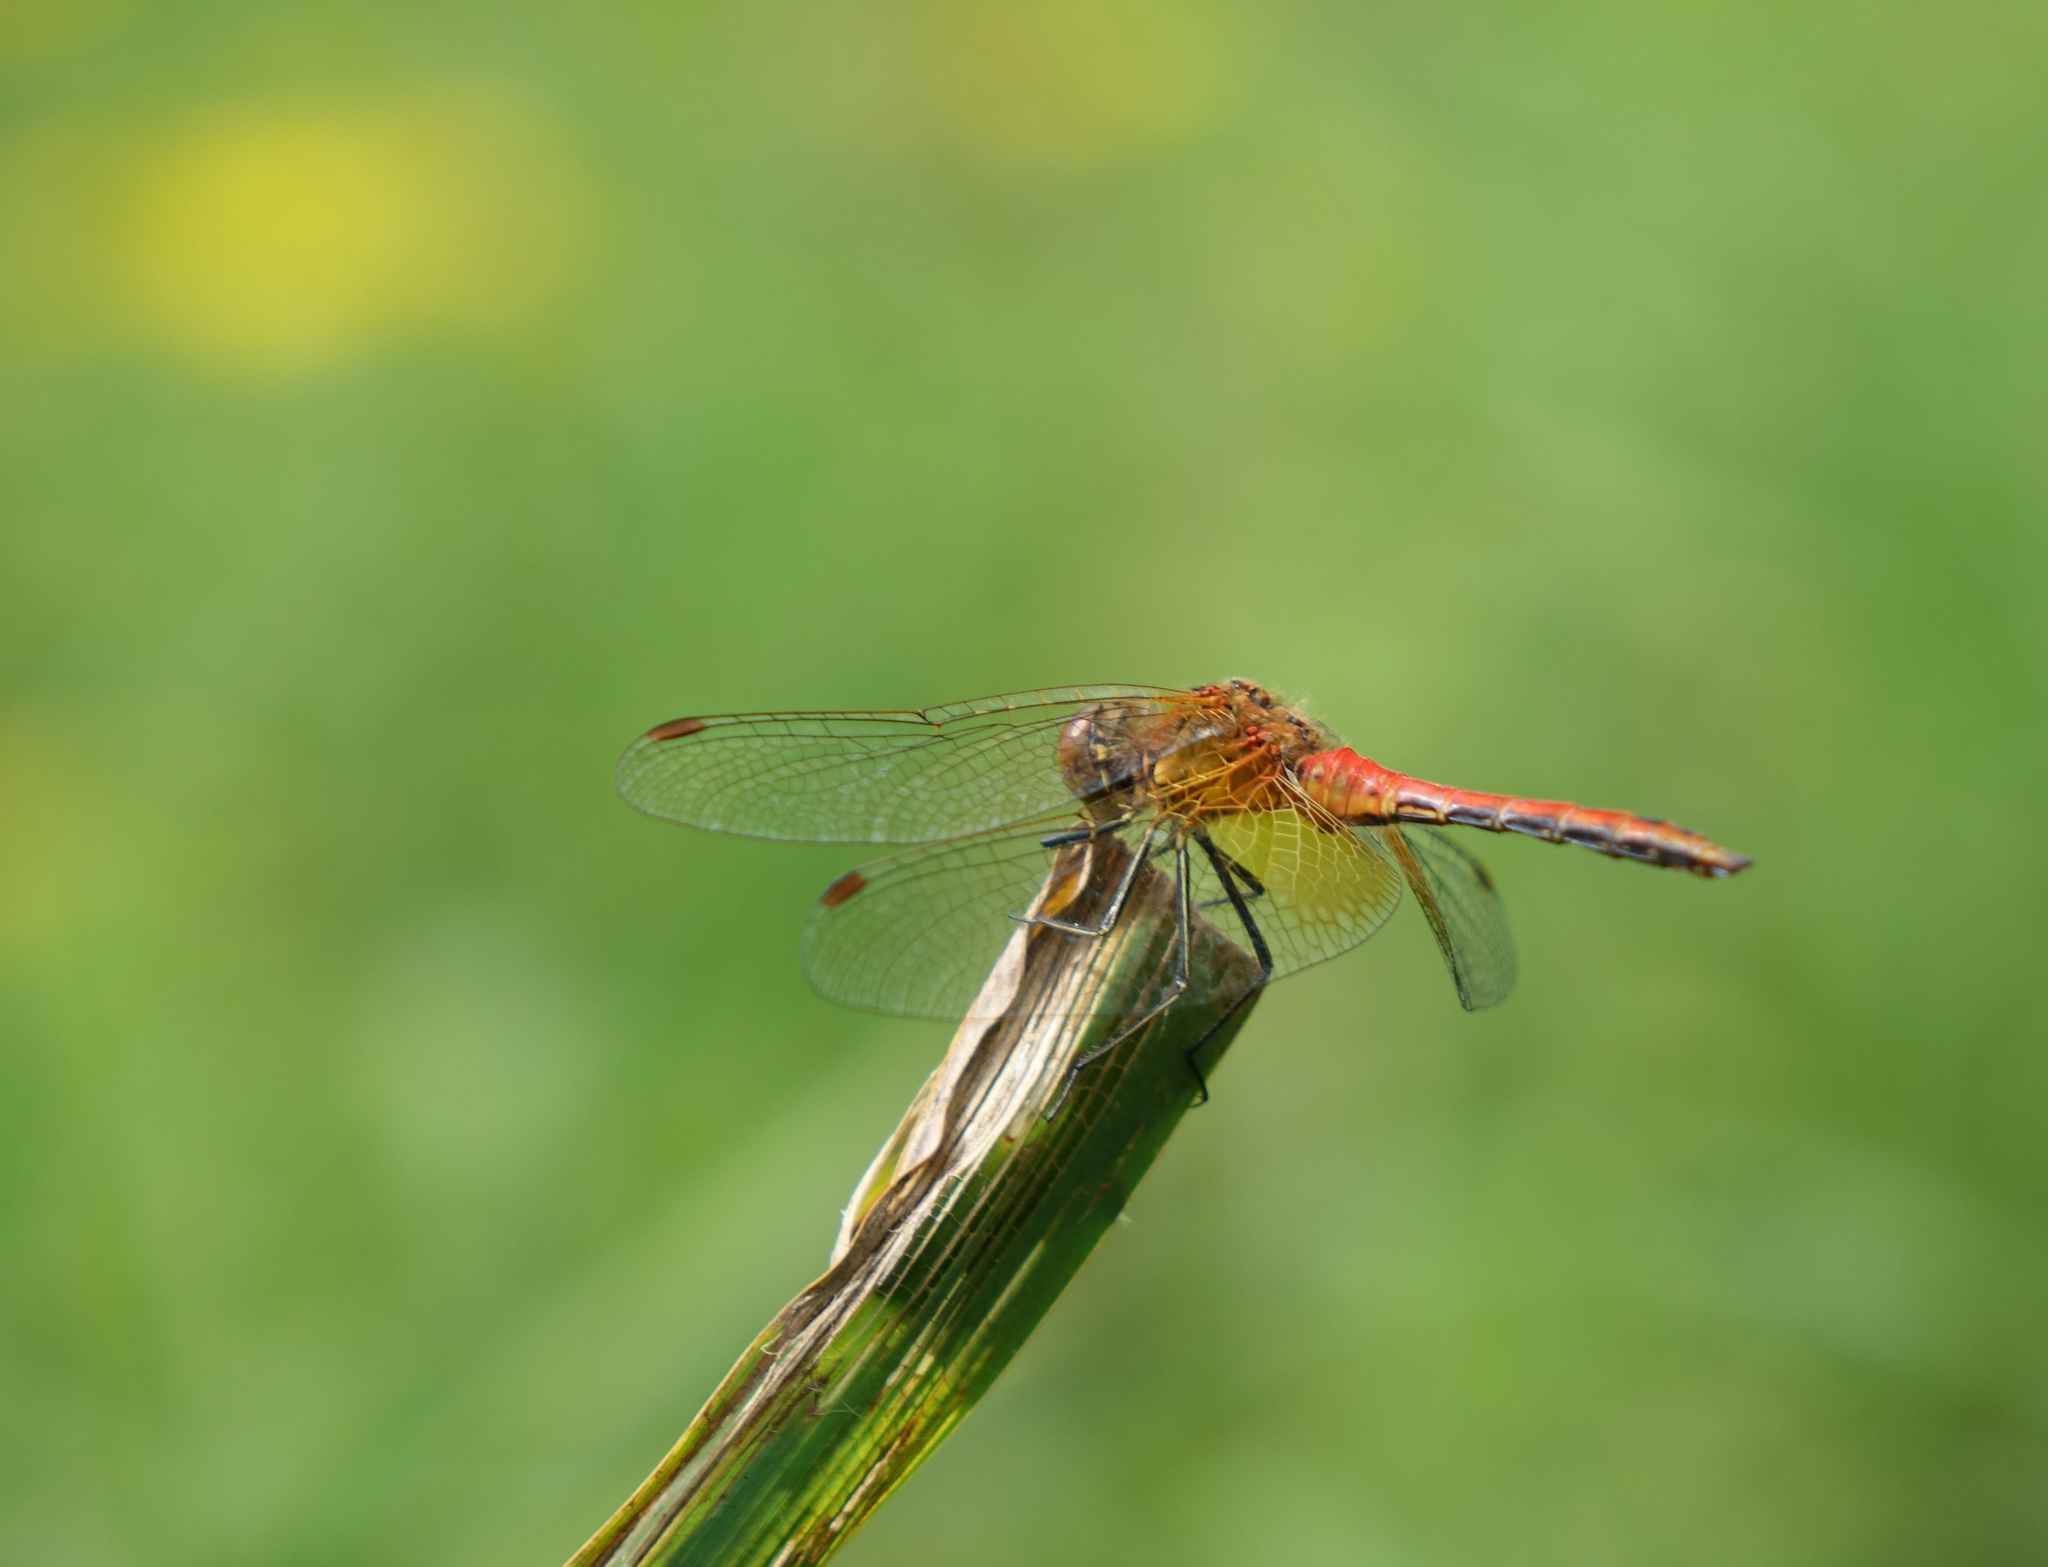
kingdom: Animalia
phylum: Arthropoda
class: Insecta
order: Odonata
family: Libellulidae
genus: Sympetrum
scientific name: Sympetrum flaveolum
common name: Yellow-winged darter
